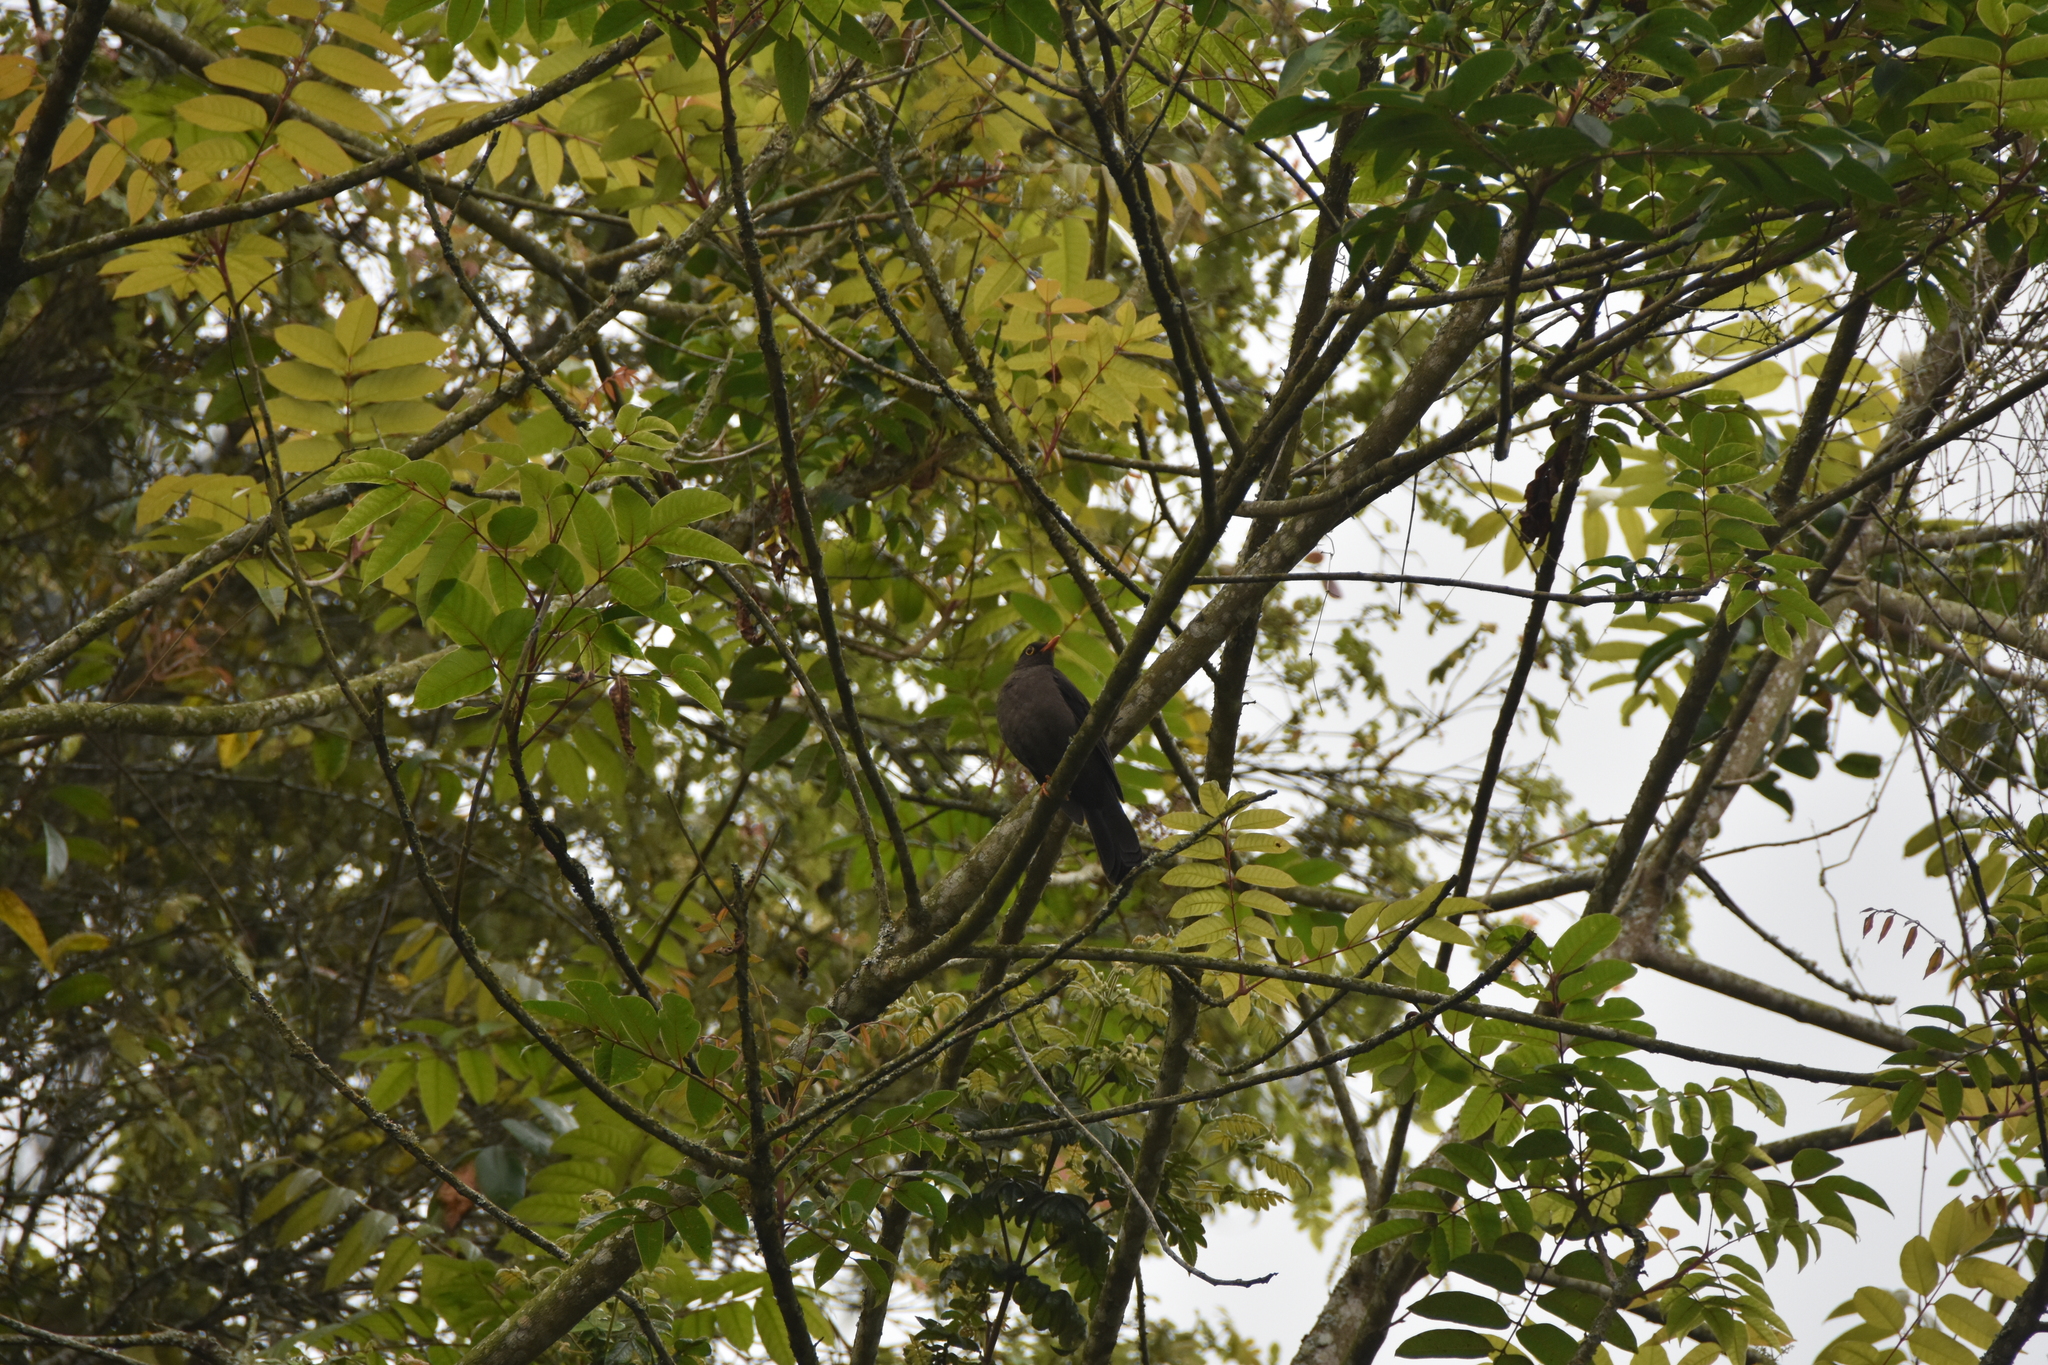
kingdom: Animalia
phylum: Chordata
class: Aves
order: Passeriformes
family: Turdidae
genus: Turdus
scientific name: Turdus fuscater
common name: Great thrush
